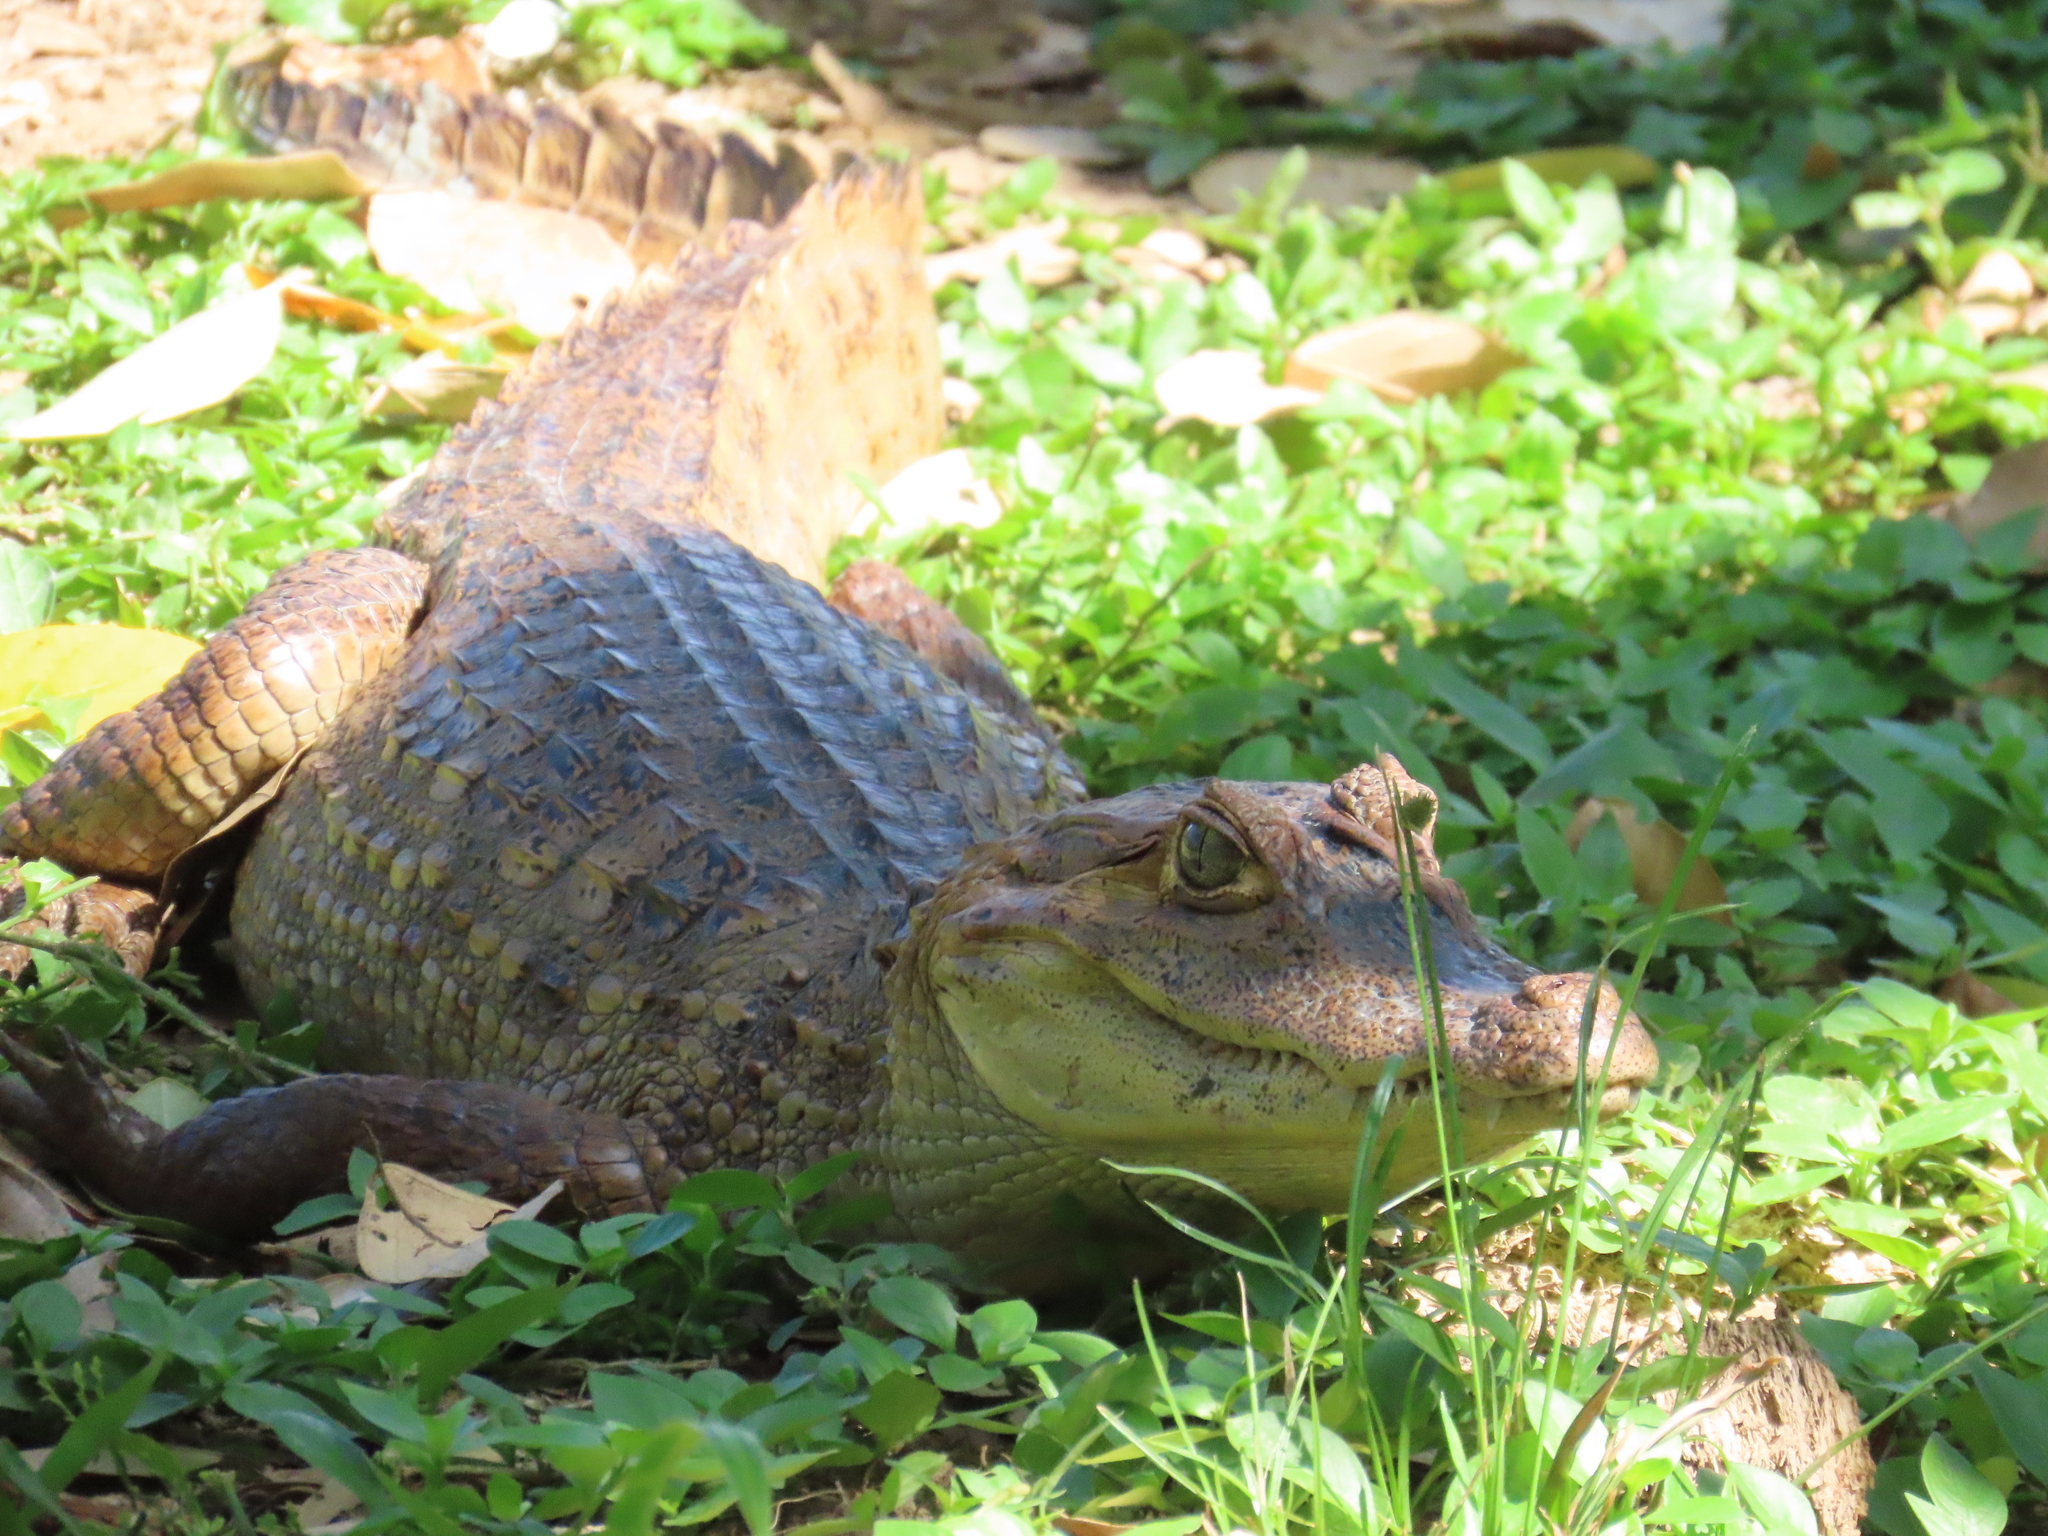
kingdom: Animalia
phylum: Chordata
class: Crocodylia
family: Alligatoridae
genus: Caiman
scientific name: Caiman crocodilus
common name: Common caiman
